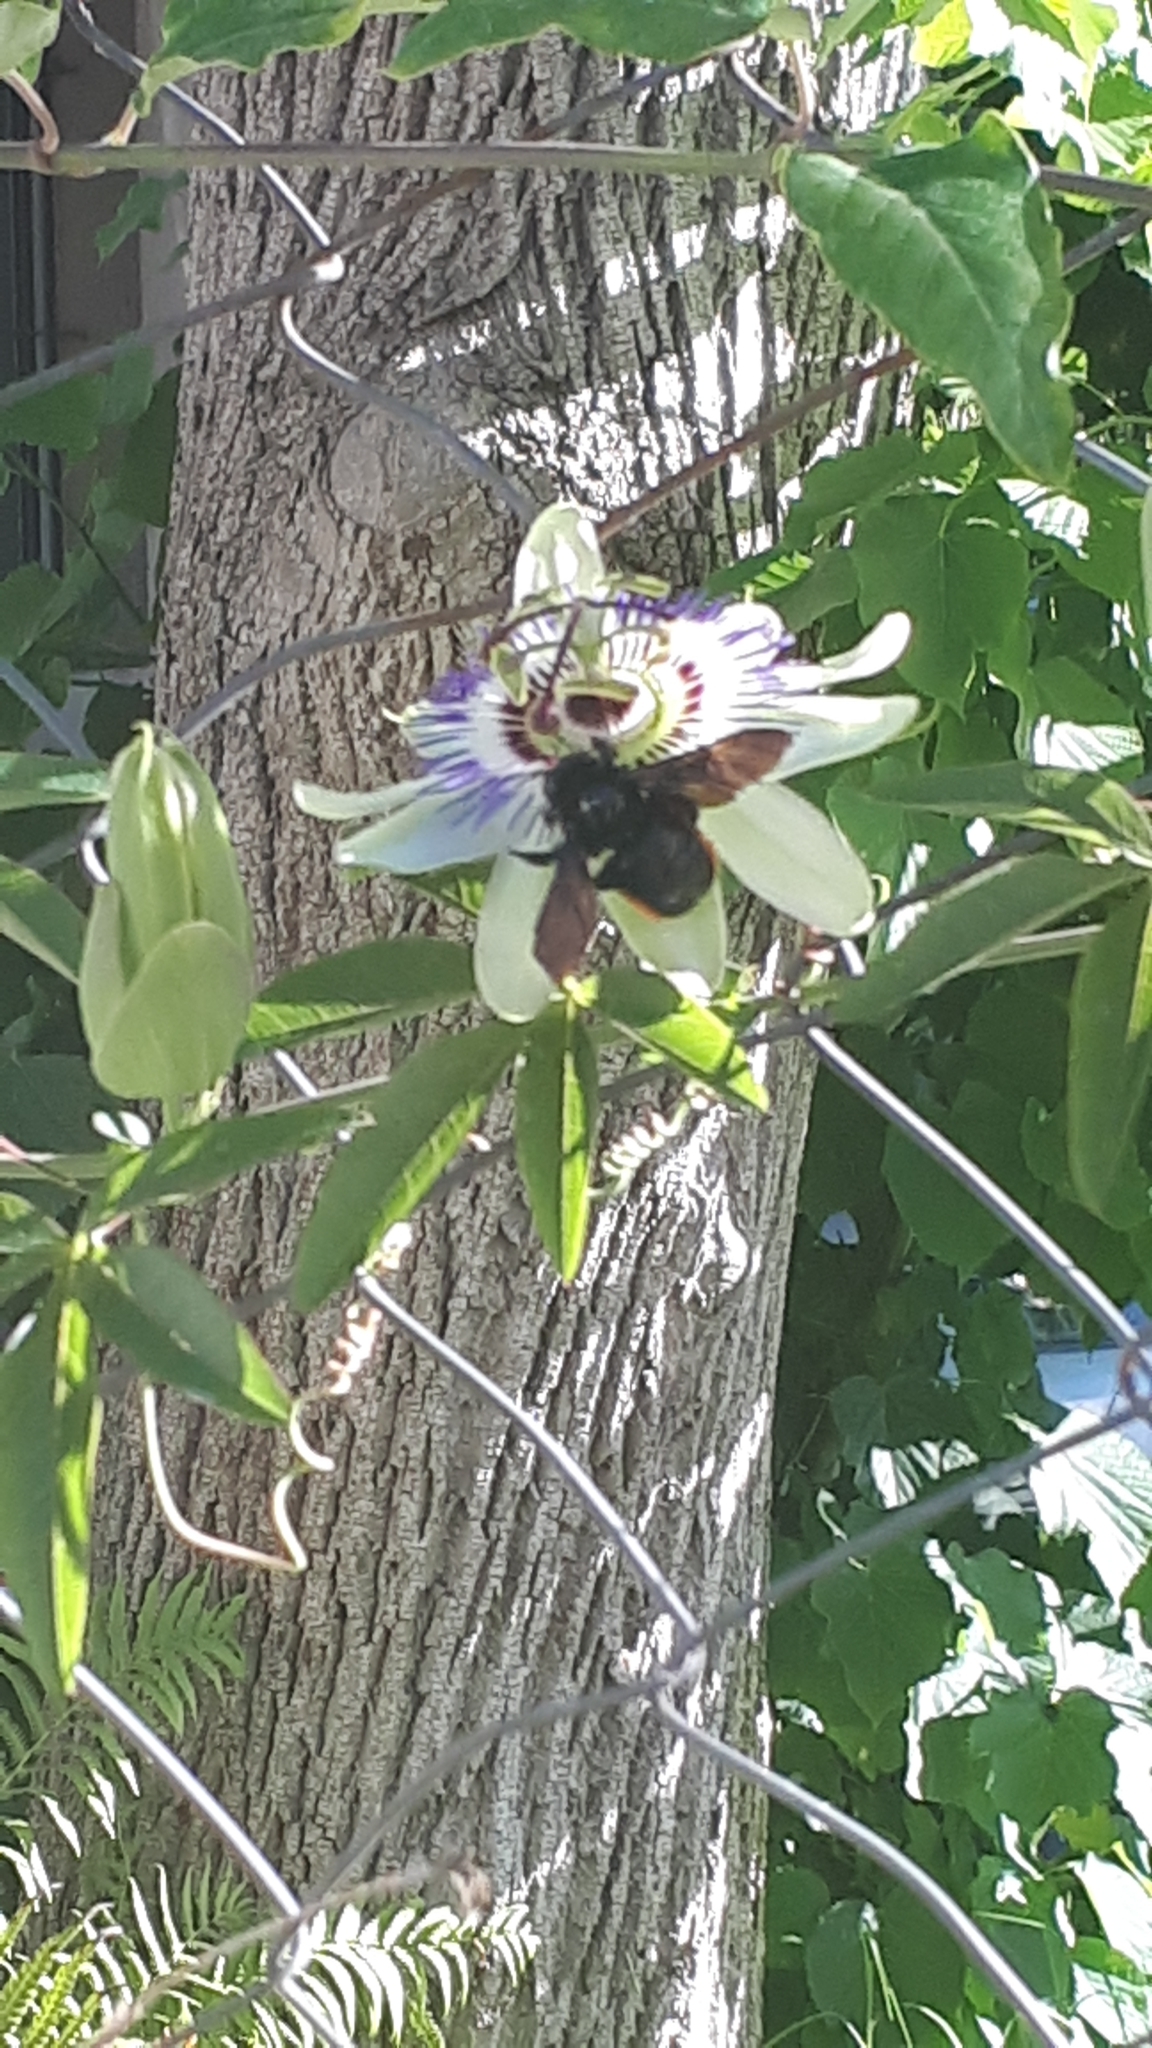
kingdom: Animalia
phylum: Arthropoda
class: Insecta
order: Hymenoptera
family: Apidae
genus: Xylocopa
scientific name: Xylocopa augusti
